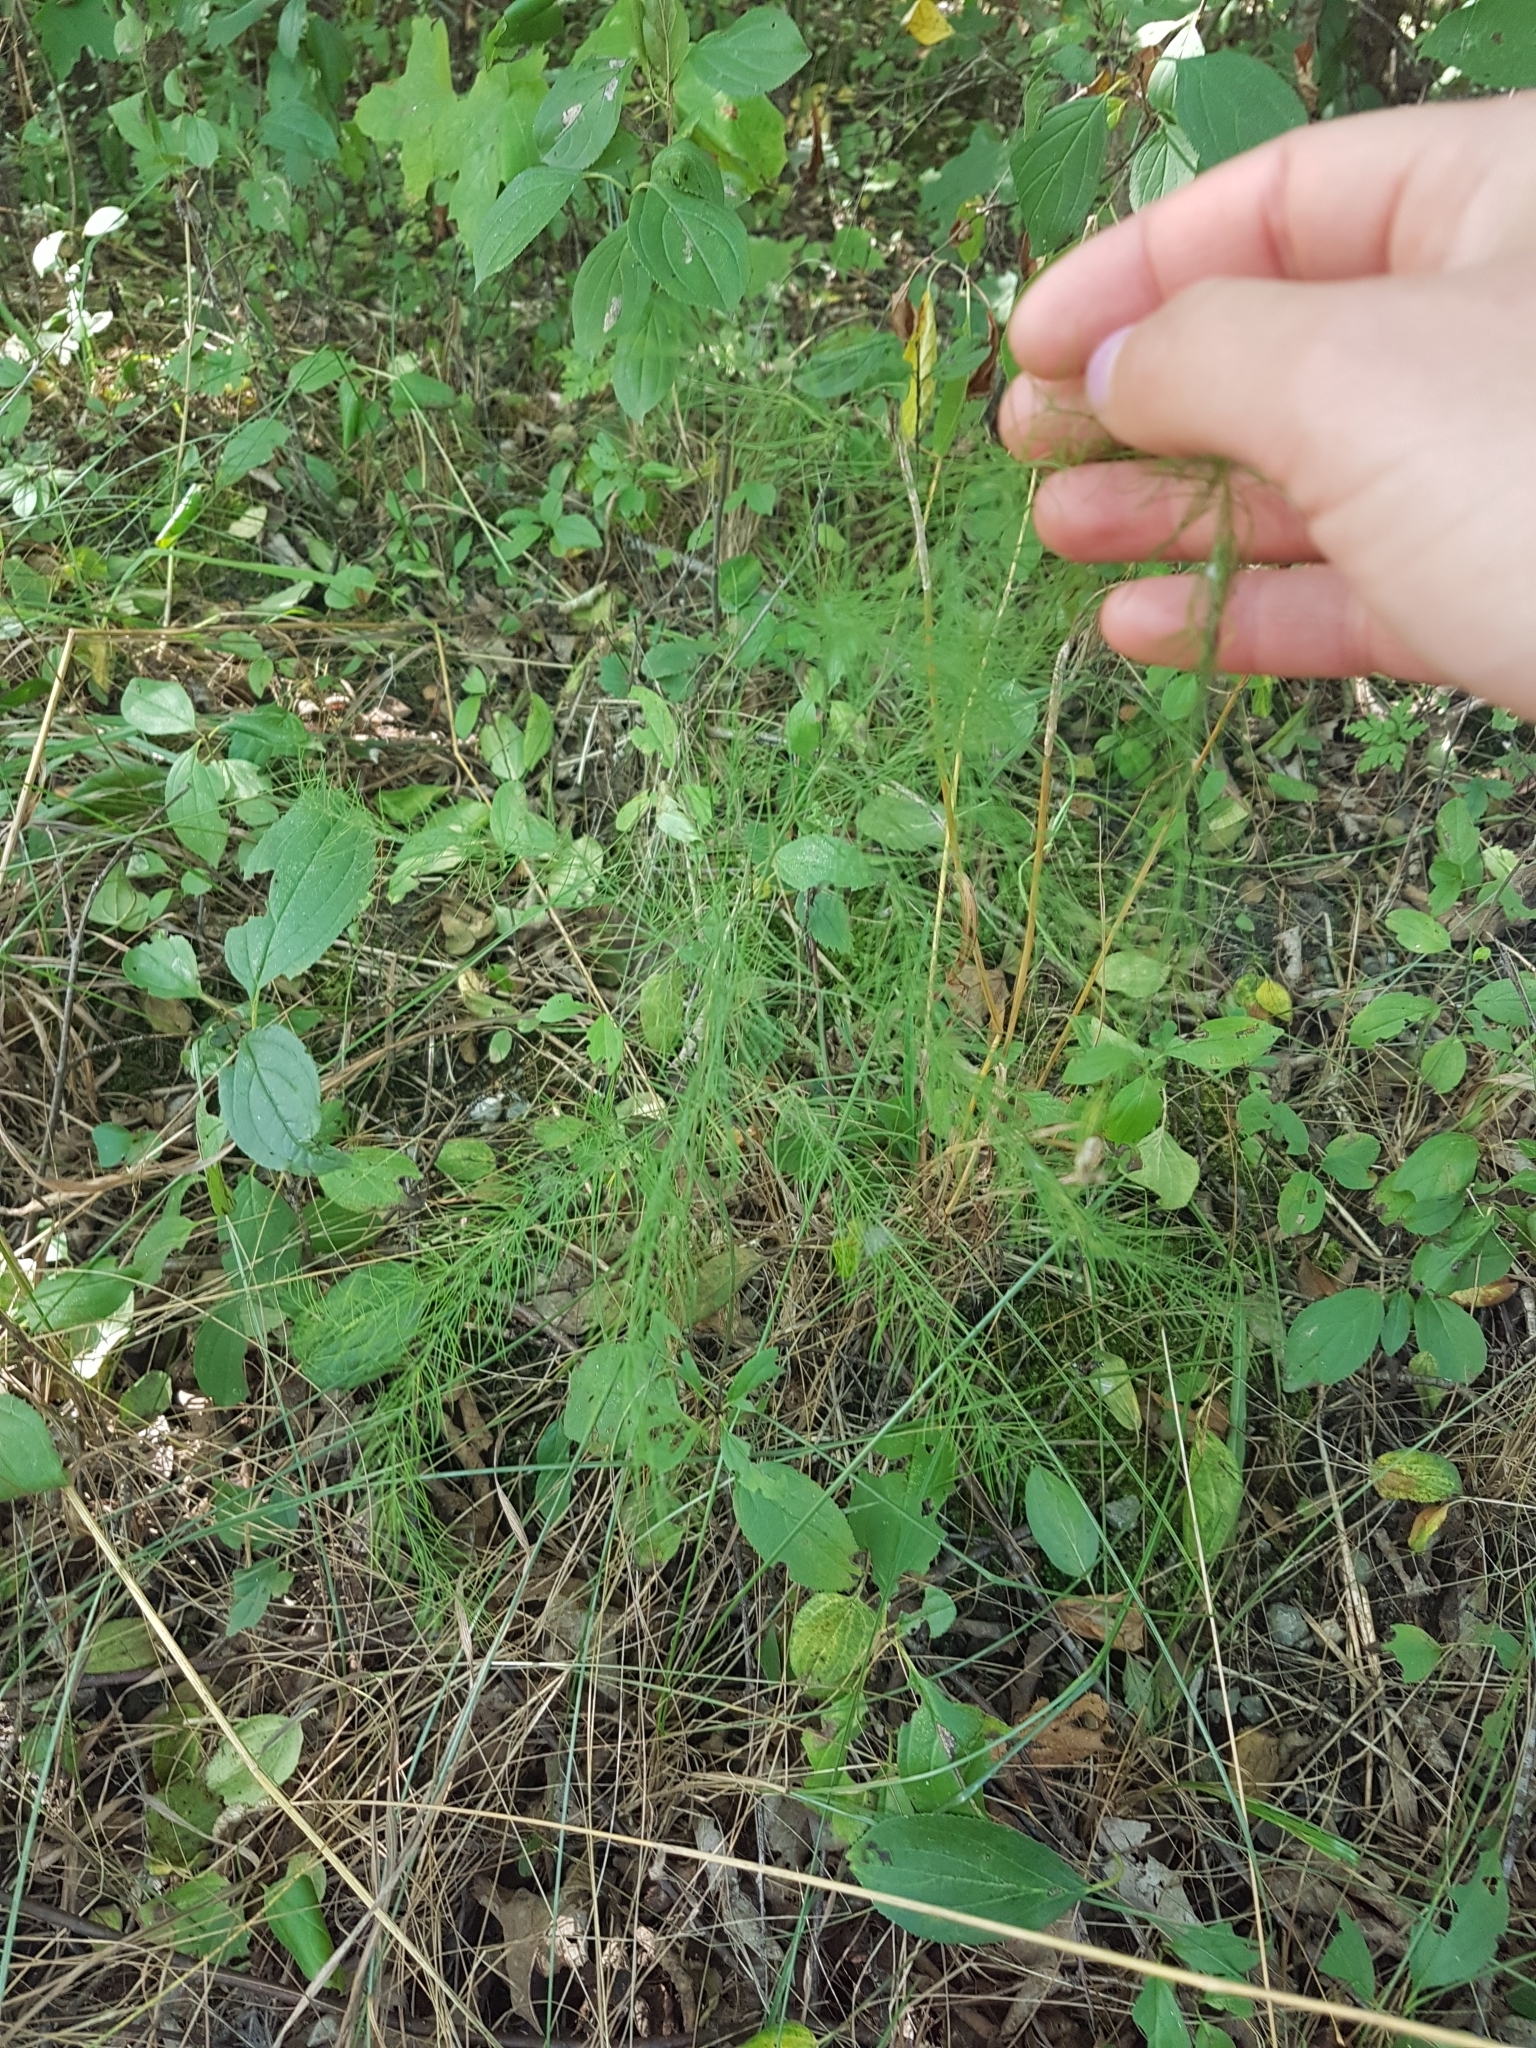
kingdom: Plantae
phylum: Tracheophyta
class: Liliopsida
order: Asparagales
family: Asparagaceae
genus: Asparagus
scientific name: Asparagus officinalis
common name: Garden asparagus
